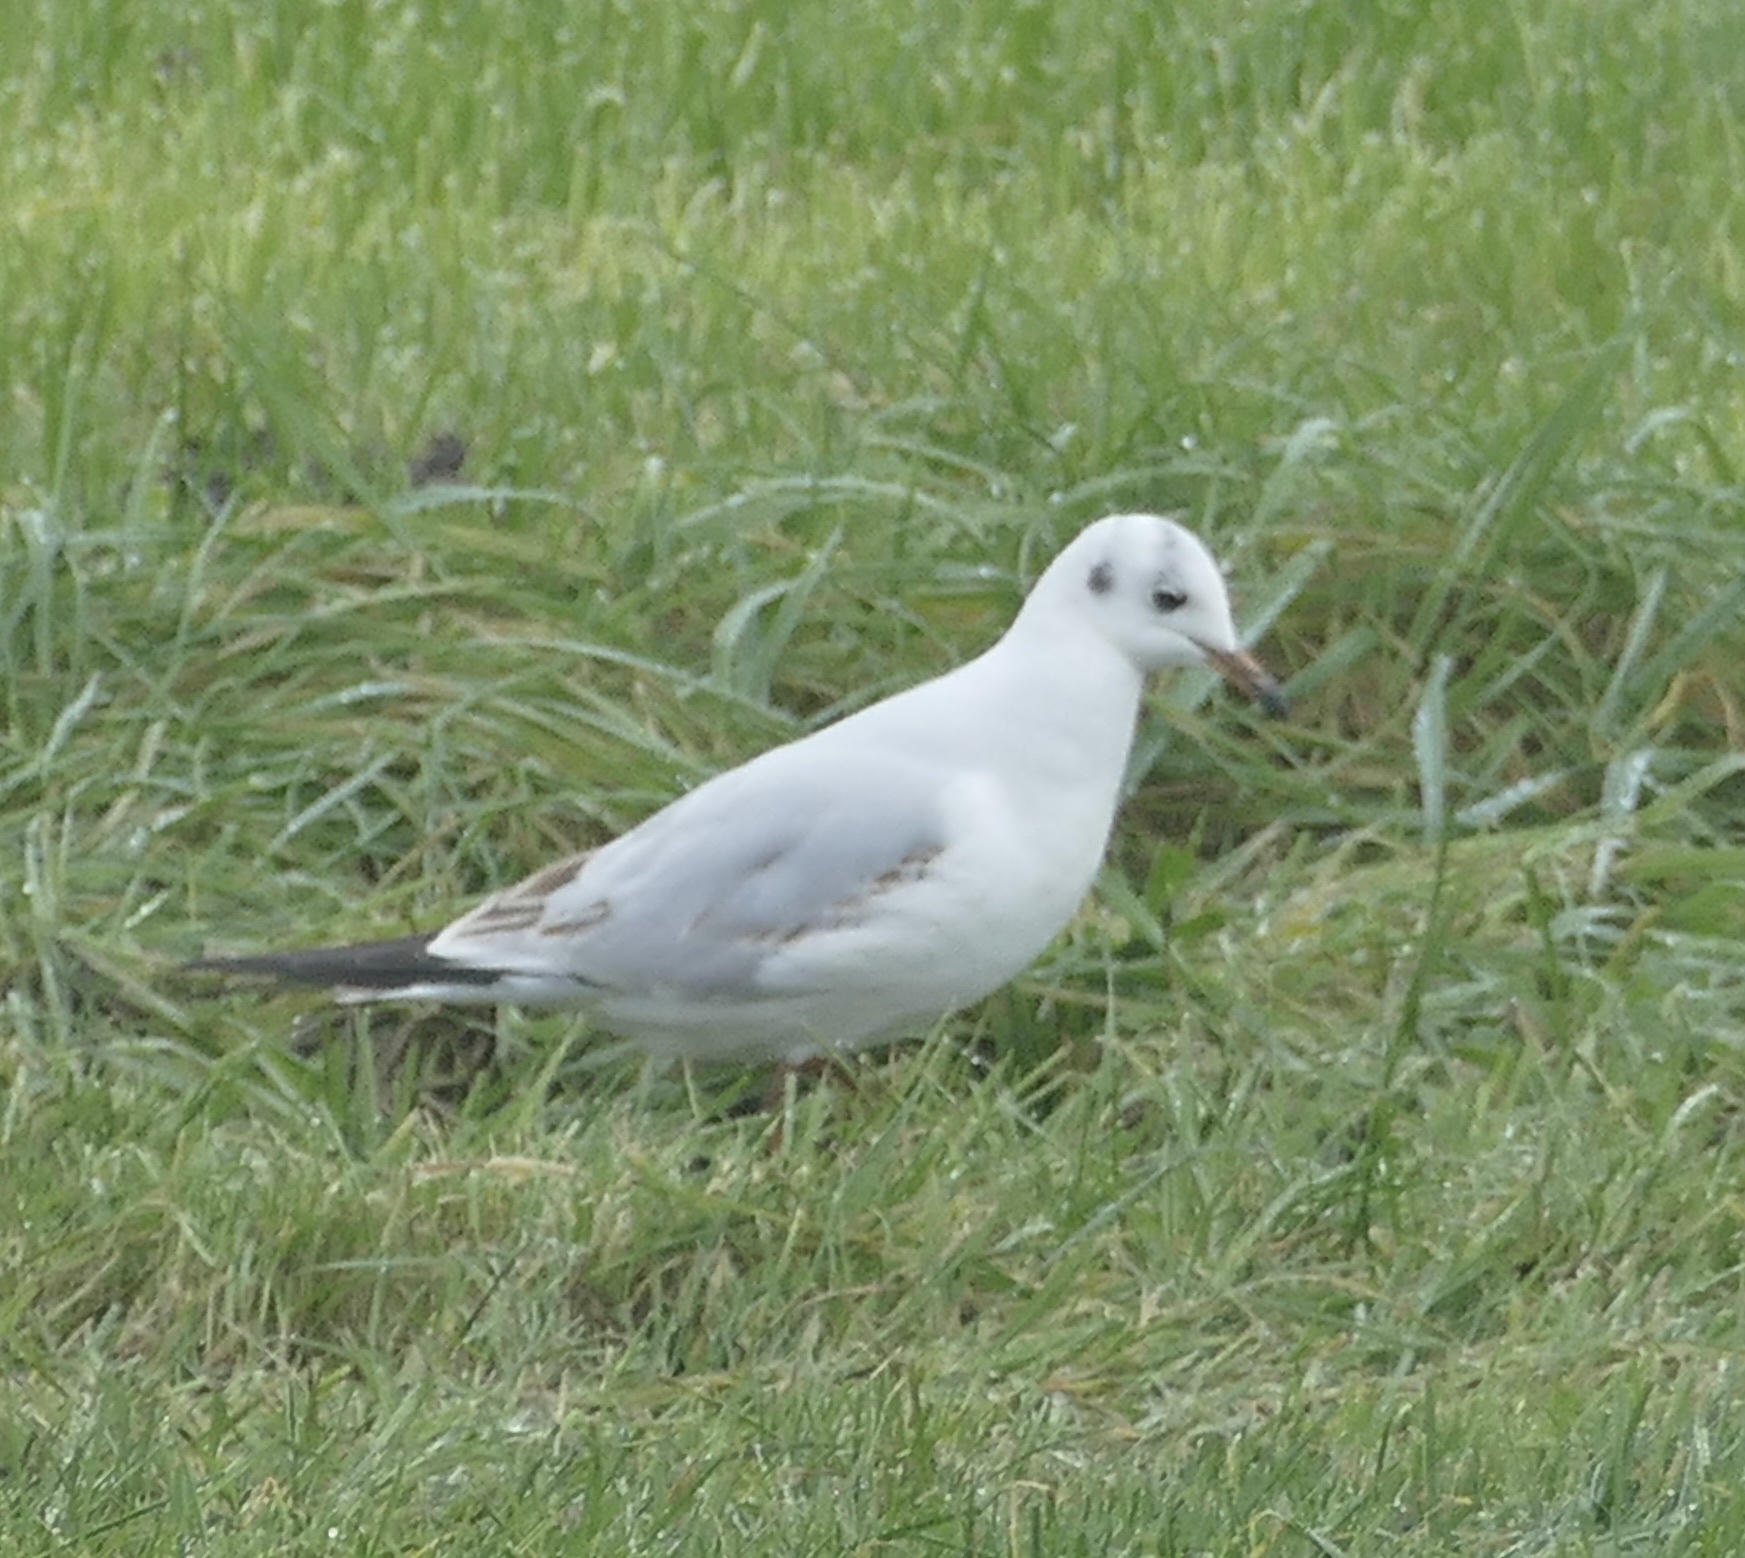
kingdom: Animalia
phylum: Chordata
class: Aves
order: Charadriiformes
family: Laridae
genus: Chroicocephalus
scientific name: Chroicocephalus ridibundus
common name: Black-headed gull
